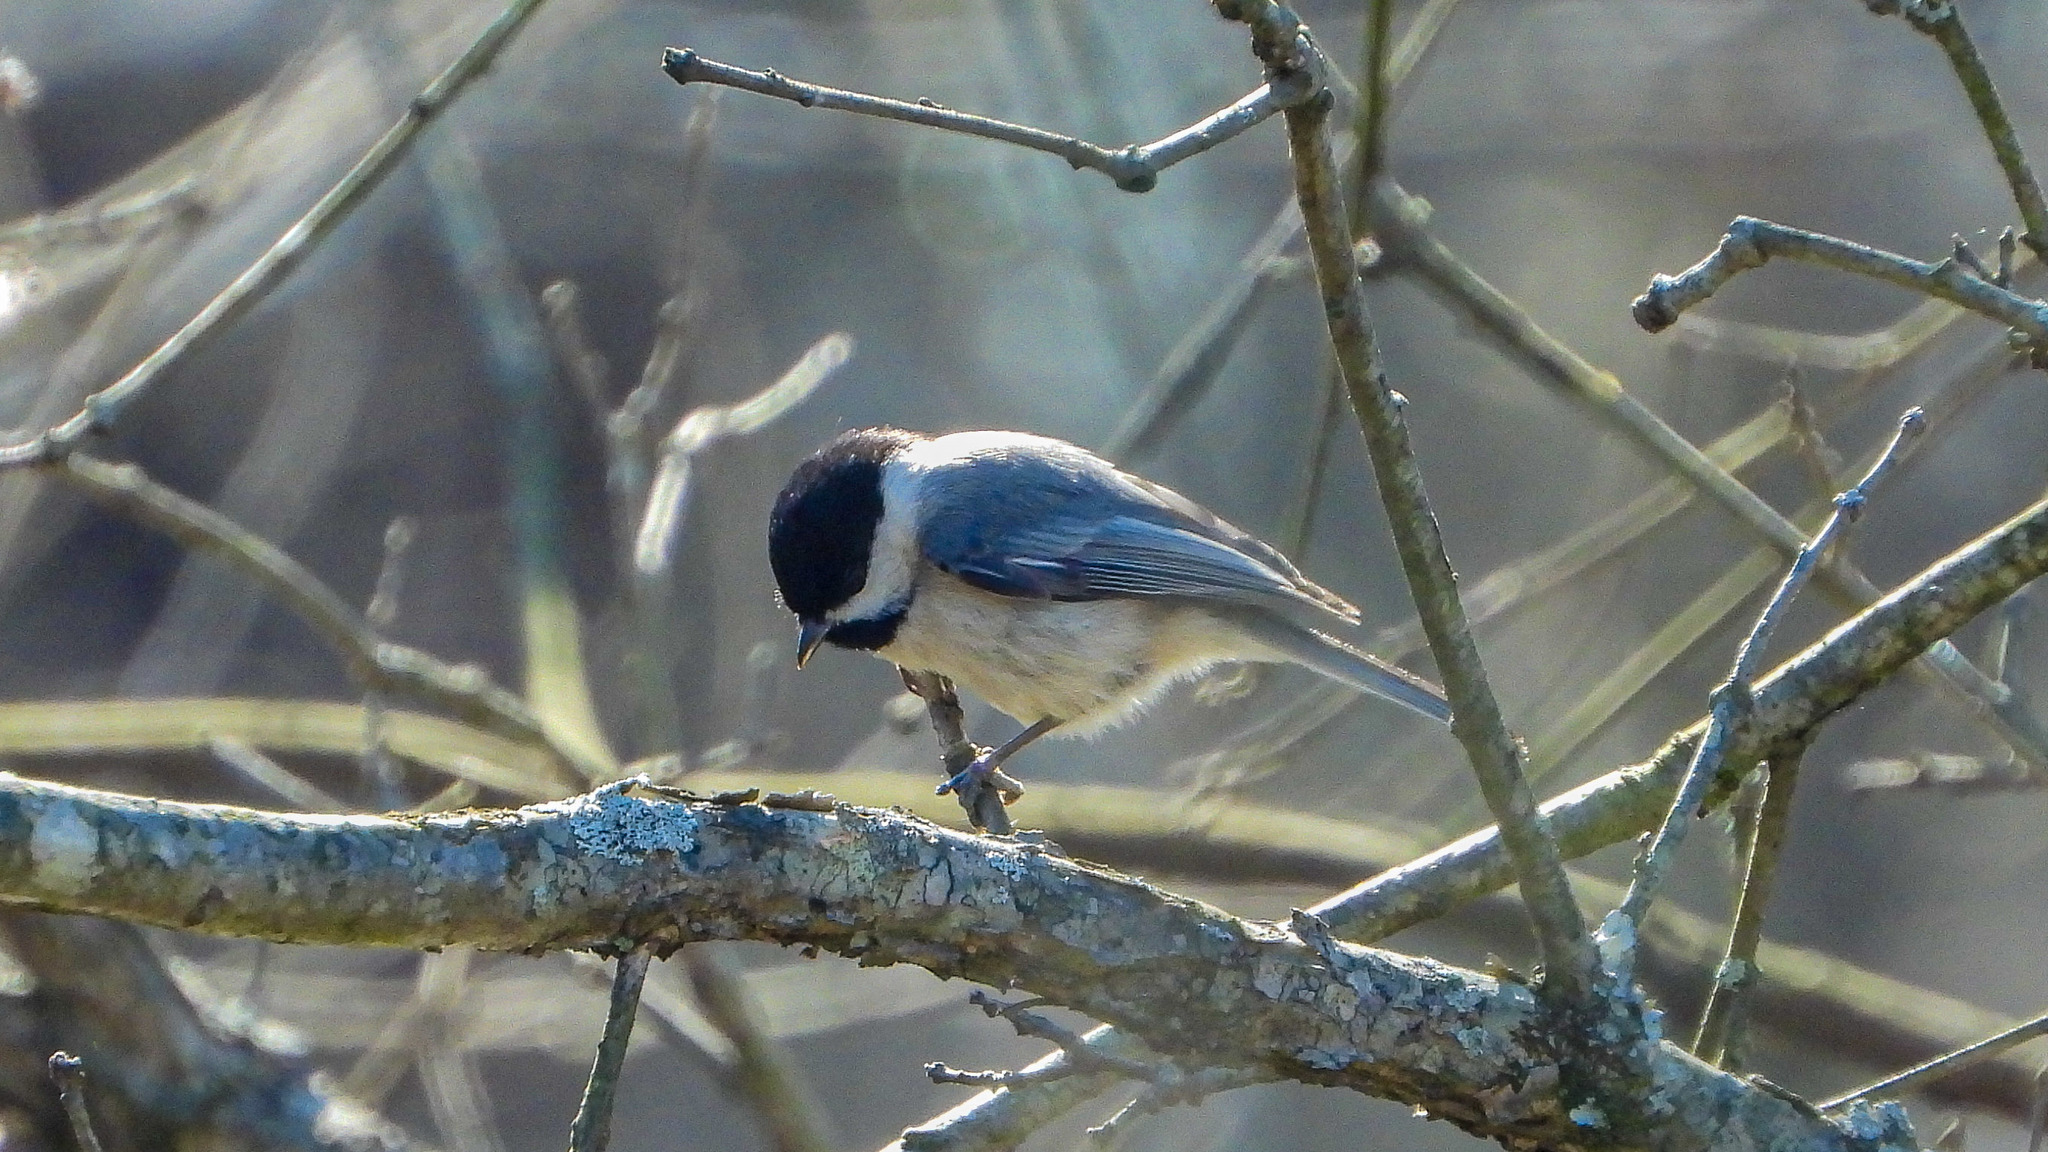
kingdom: Animalia
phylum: Chordata
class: Aves
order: Passeriformes
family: Paridae
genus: Poecile
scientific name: Poecile carolinensis
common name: Carolina chickadee
